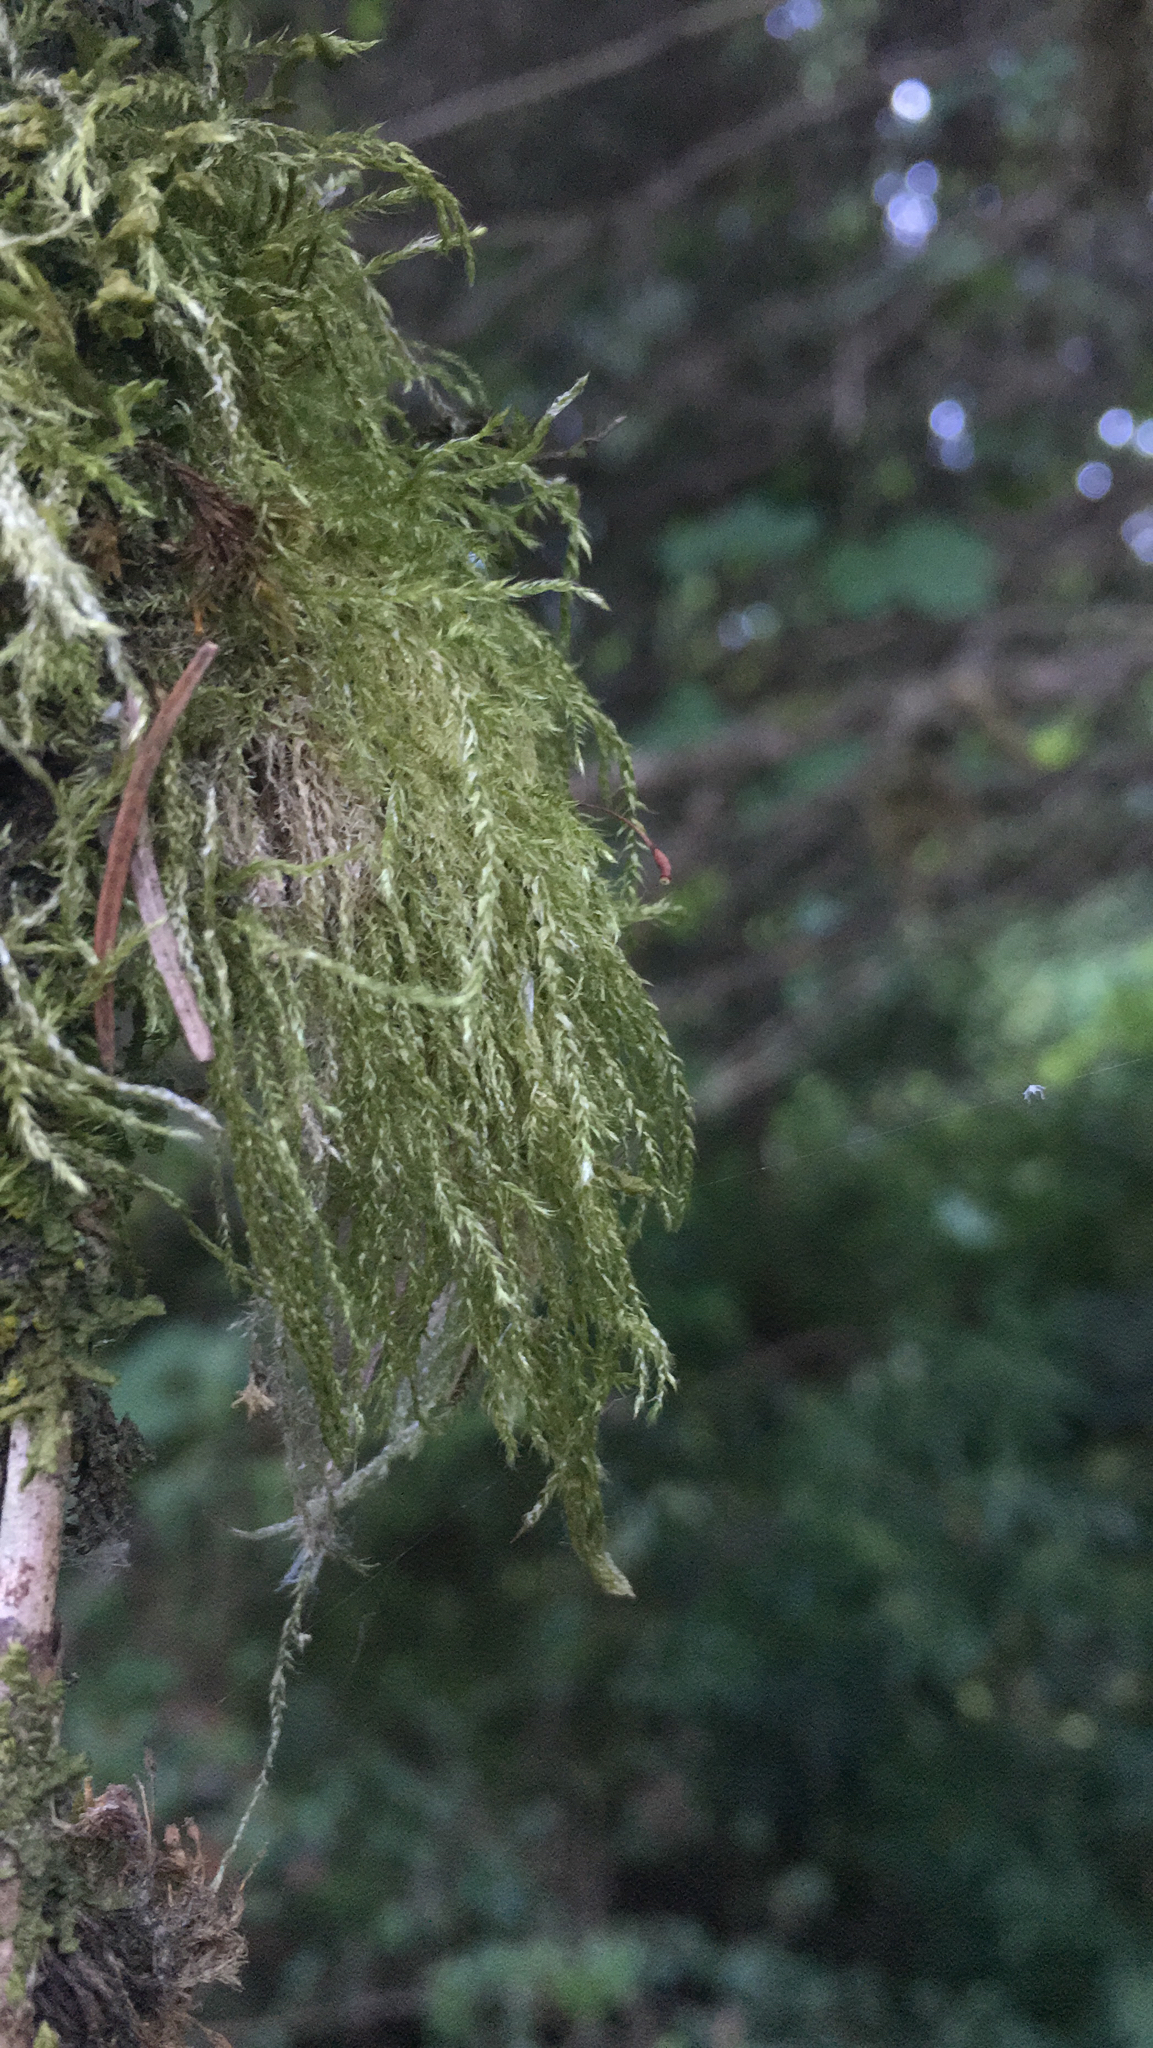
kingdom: Plantae
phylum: Bryophyta
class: Bryopsida
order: Hypnales
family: Lembophyllaceae
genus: Pseudisothecium
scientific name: Pseudisothecium stoloniferum
